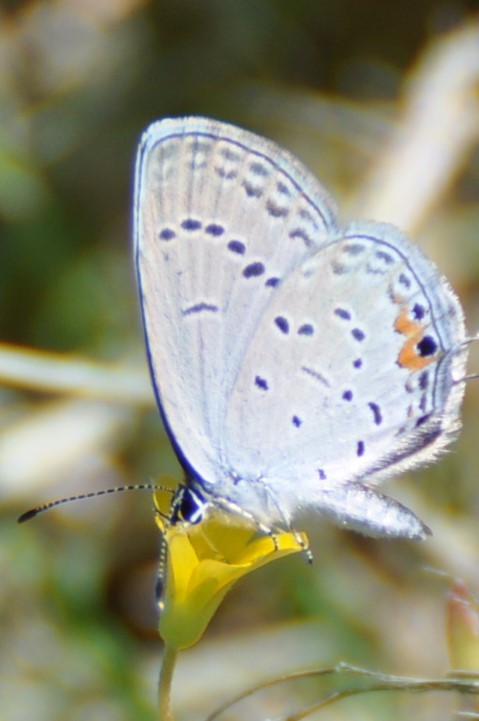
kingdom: Animalia
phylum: Arthropoda
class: Insecta
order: Lepidoptera
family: Lycaenidae
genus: Elkalyce
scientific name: Elkalyce comyntas
